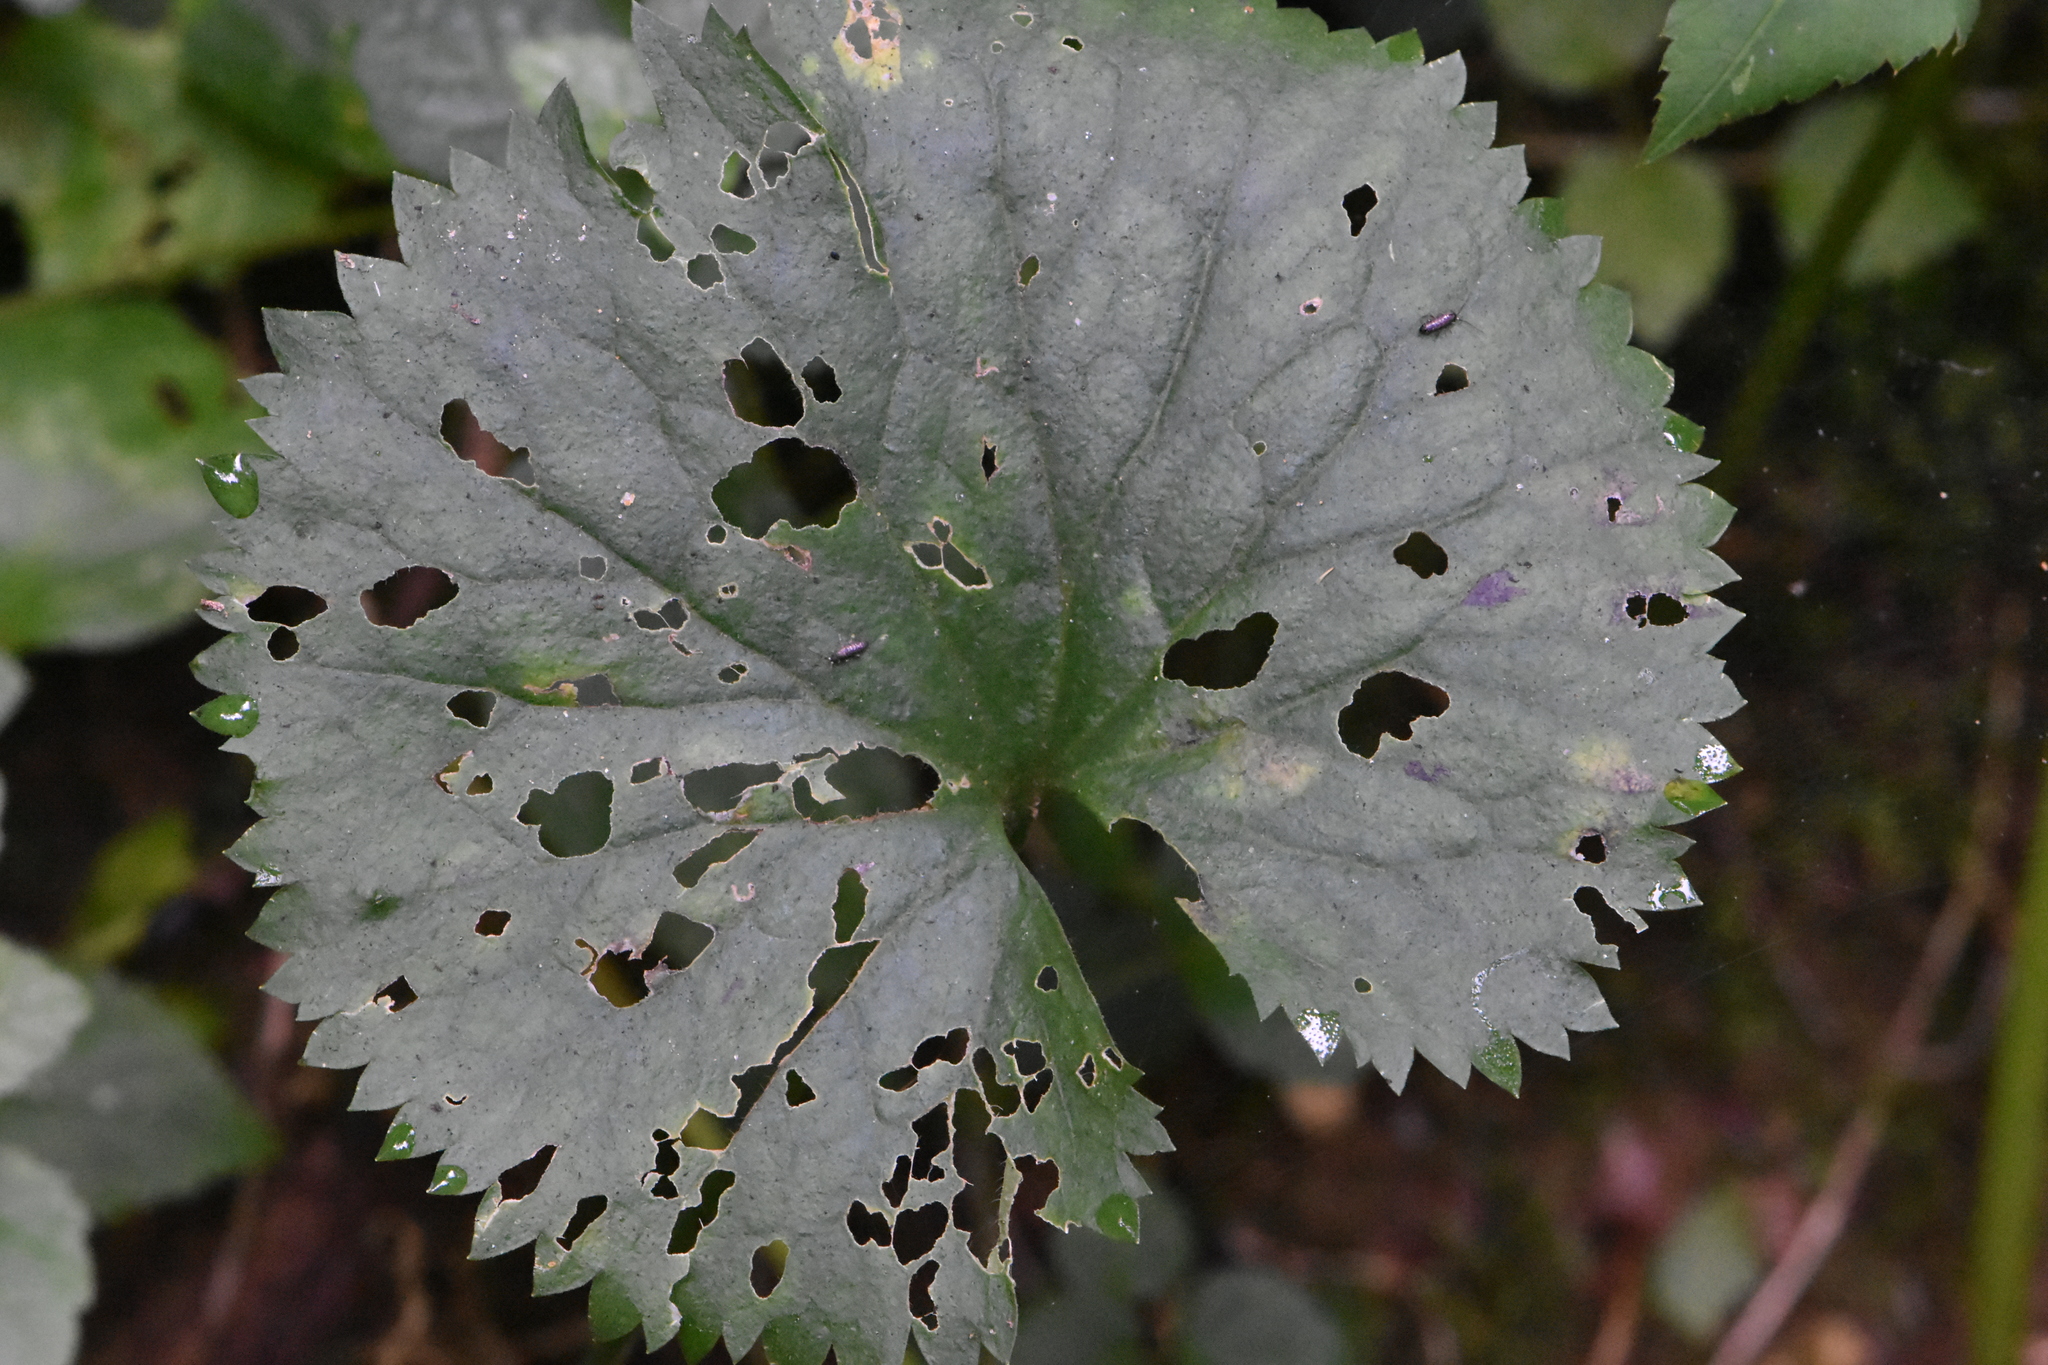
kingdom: Plantae
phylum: Tracheophyta
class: Magnoliopsida
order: Ranunculales
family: Ranunculaceae
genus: Ranunculus
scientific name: Ranunculus cassubicus
